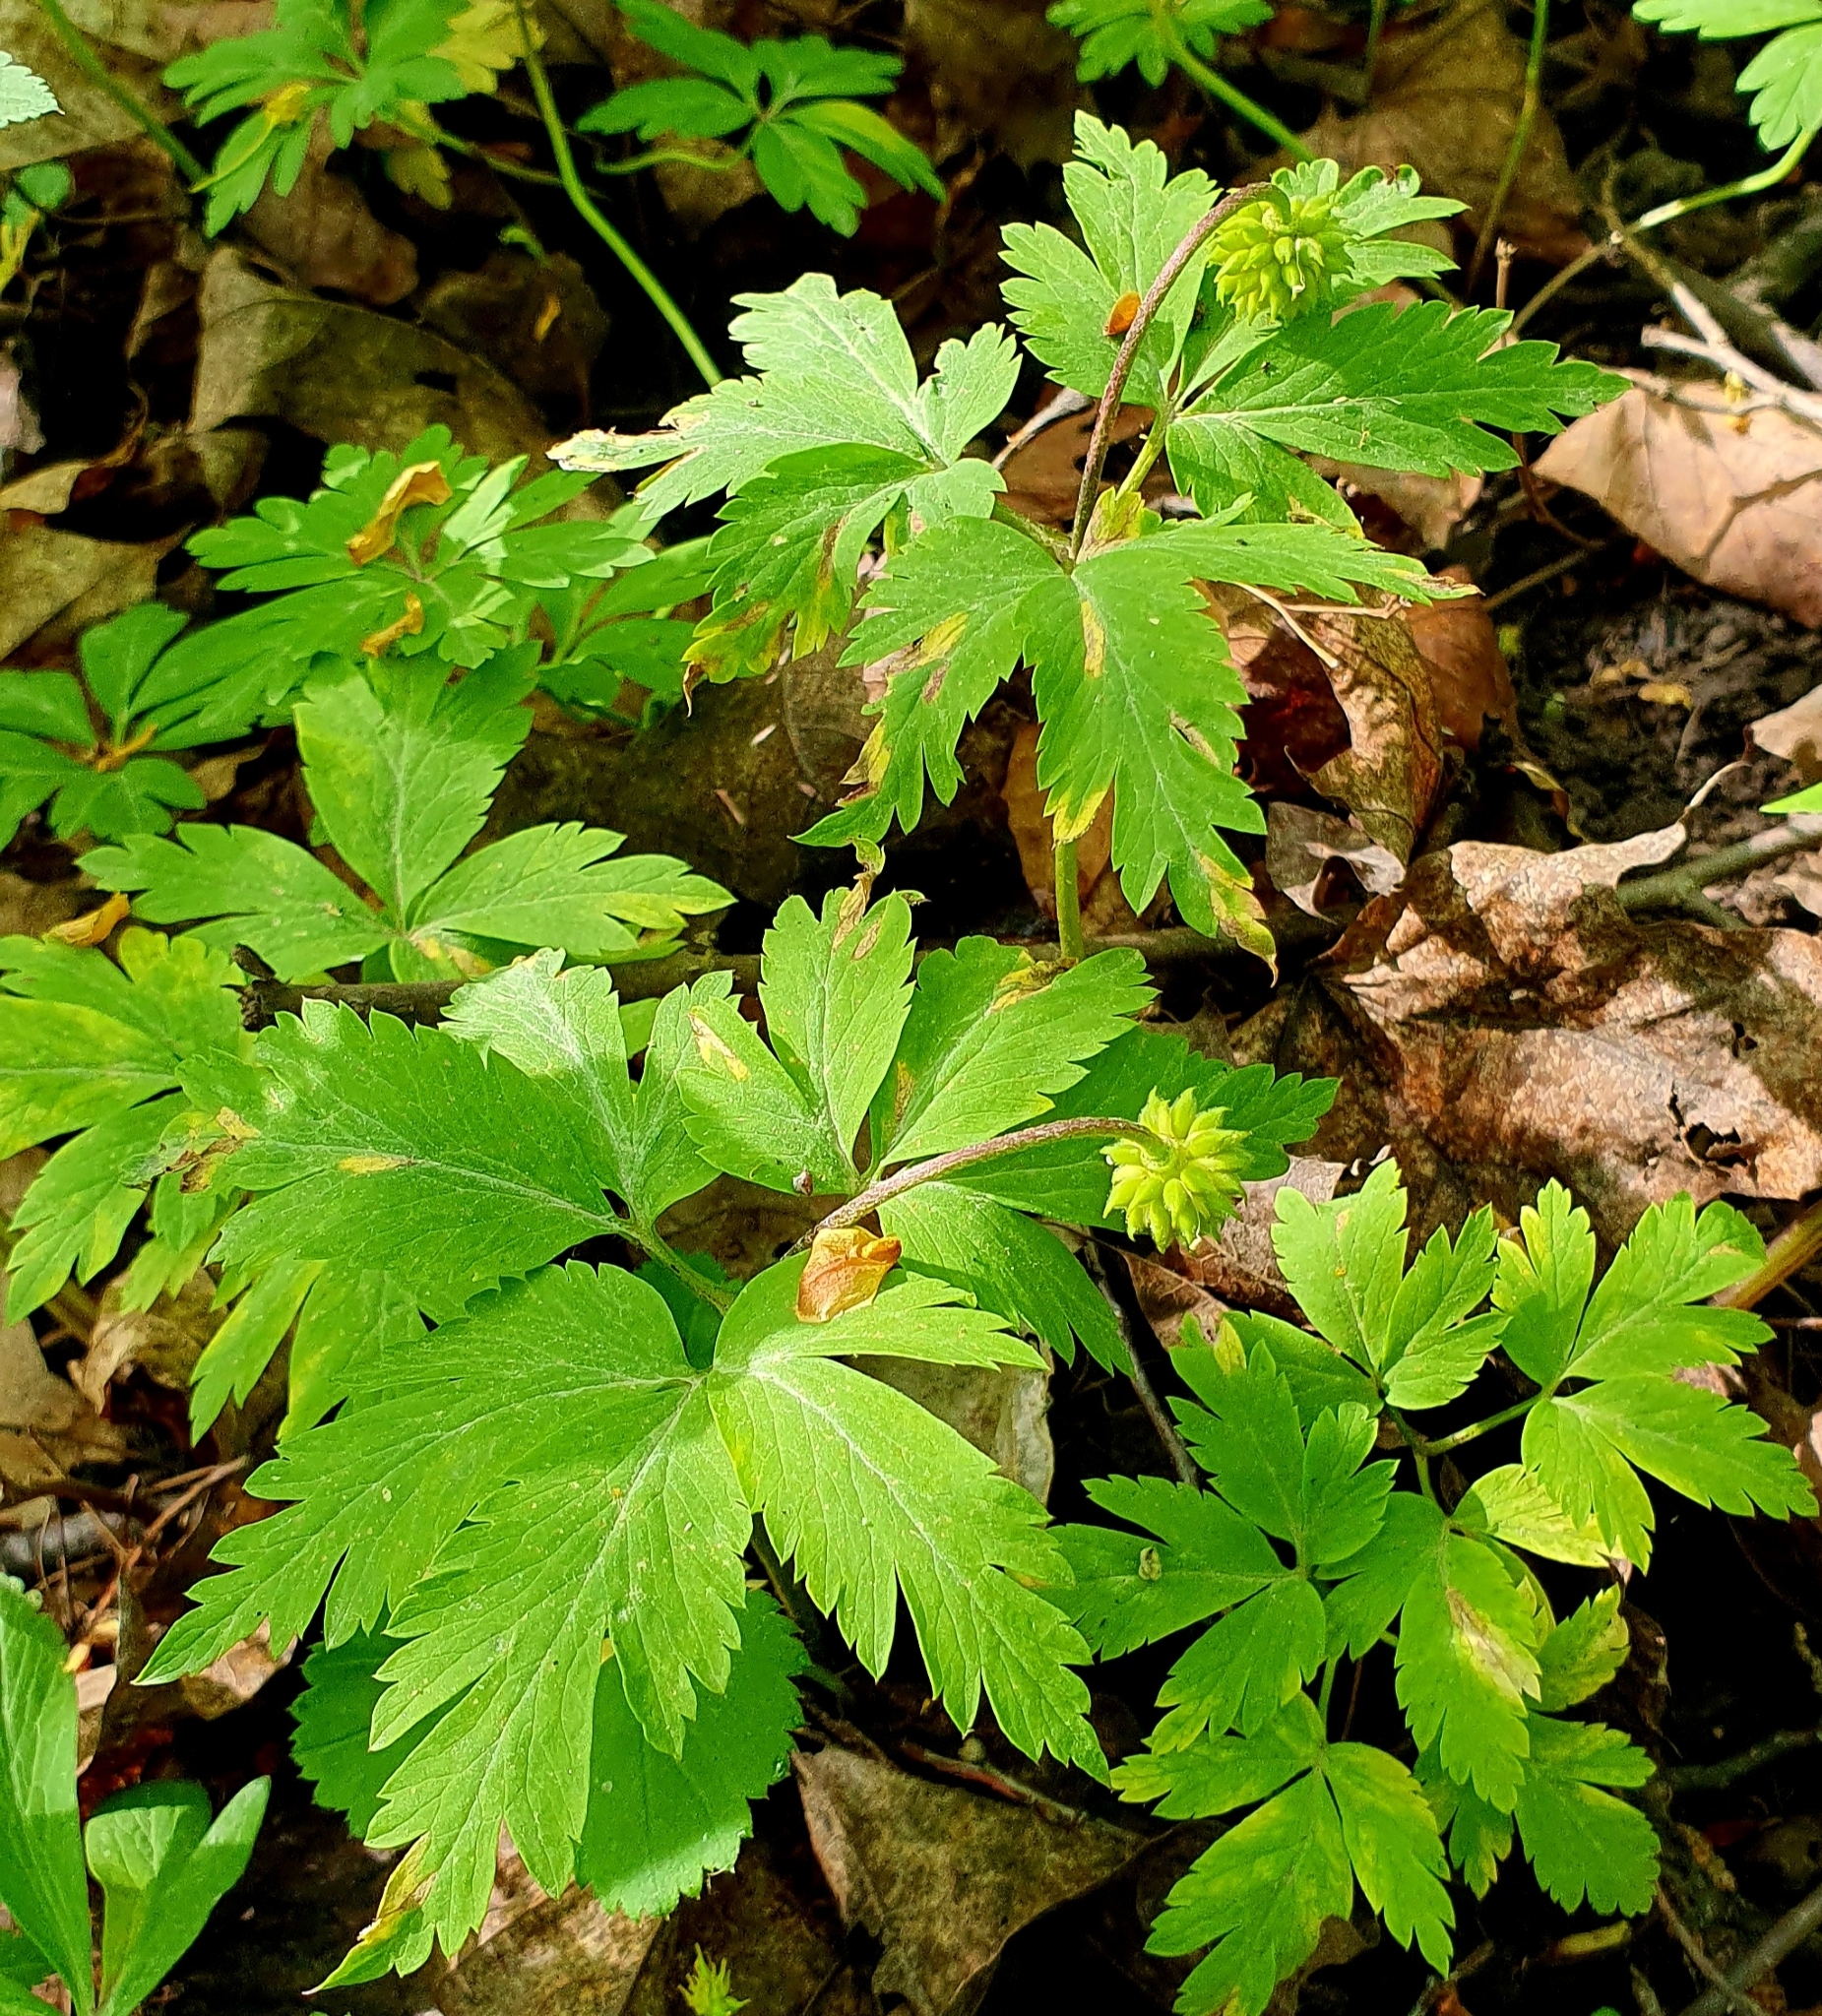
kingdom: Plantae
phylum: Tracheophyta
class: Magnoliopsida
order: Ranunculales
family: Ranunculaceae
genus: Anemone
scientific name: Anemone altaica
